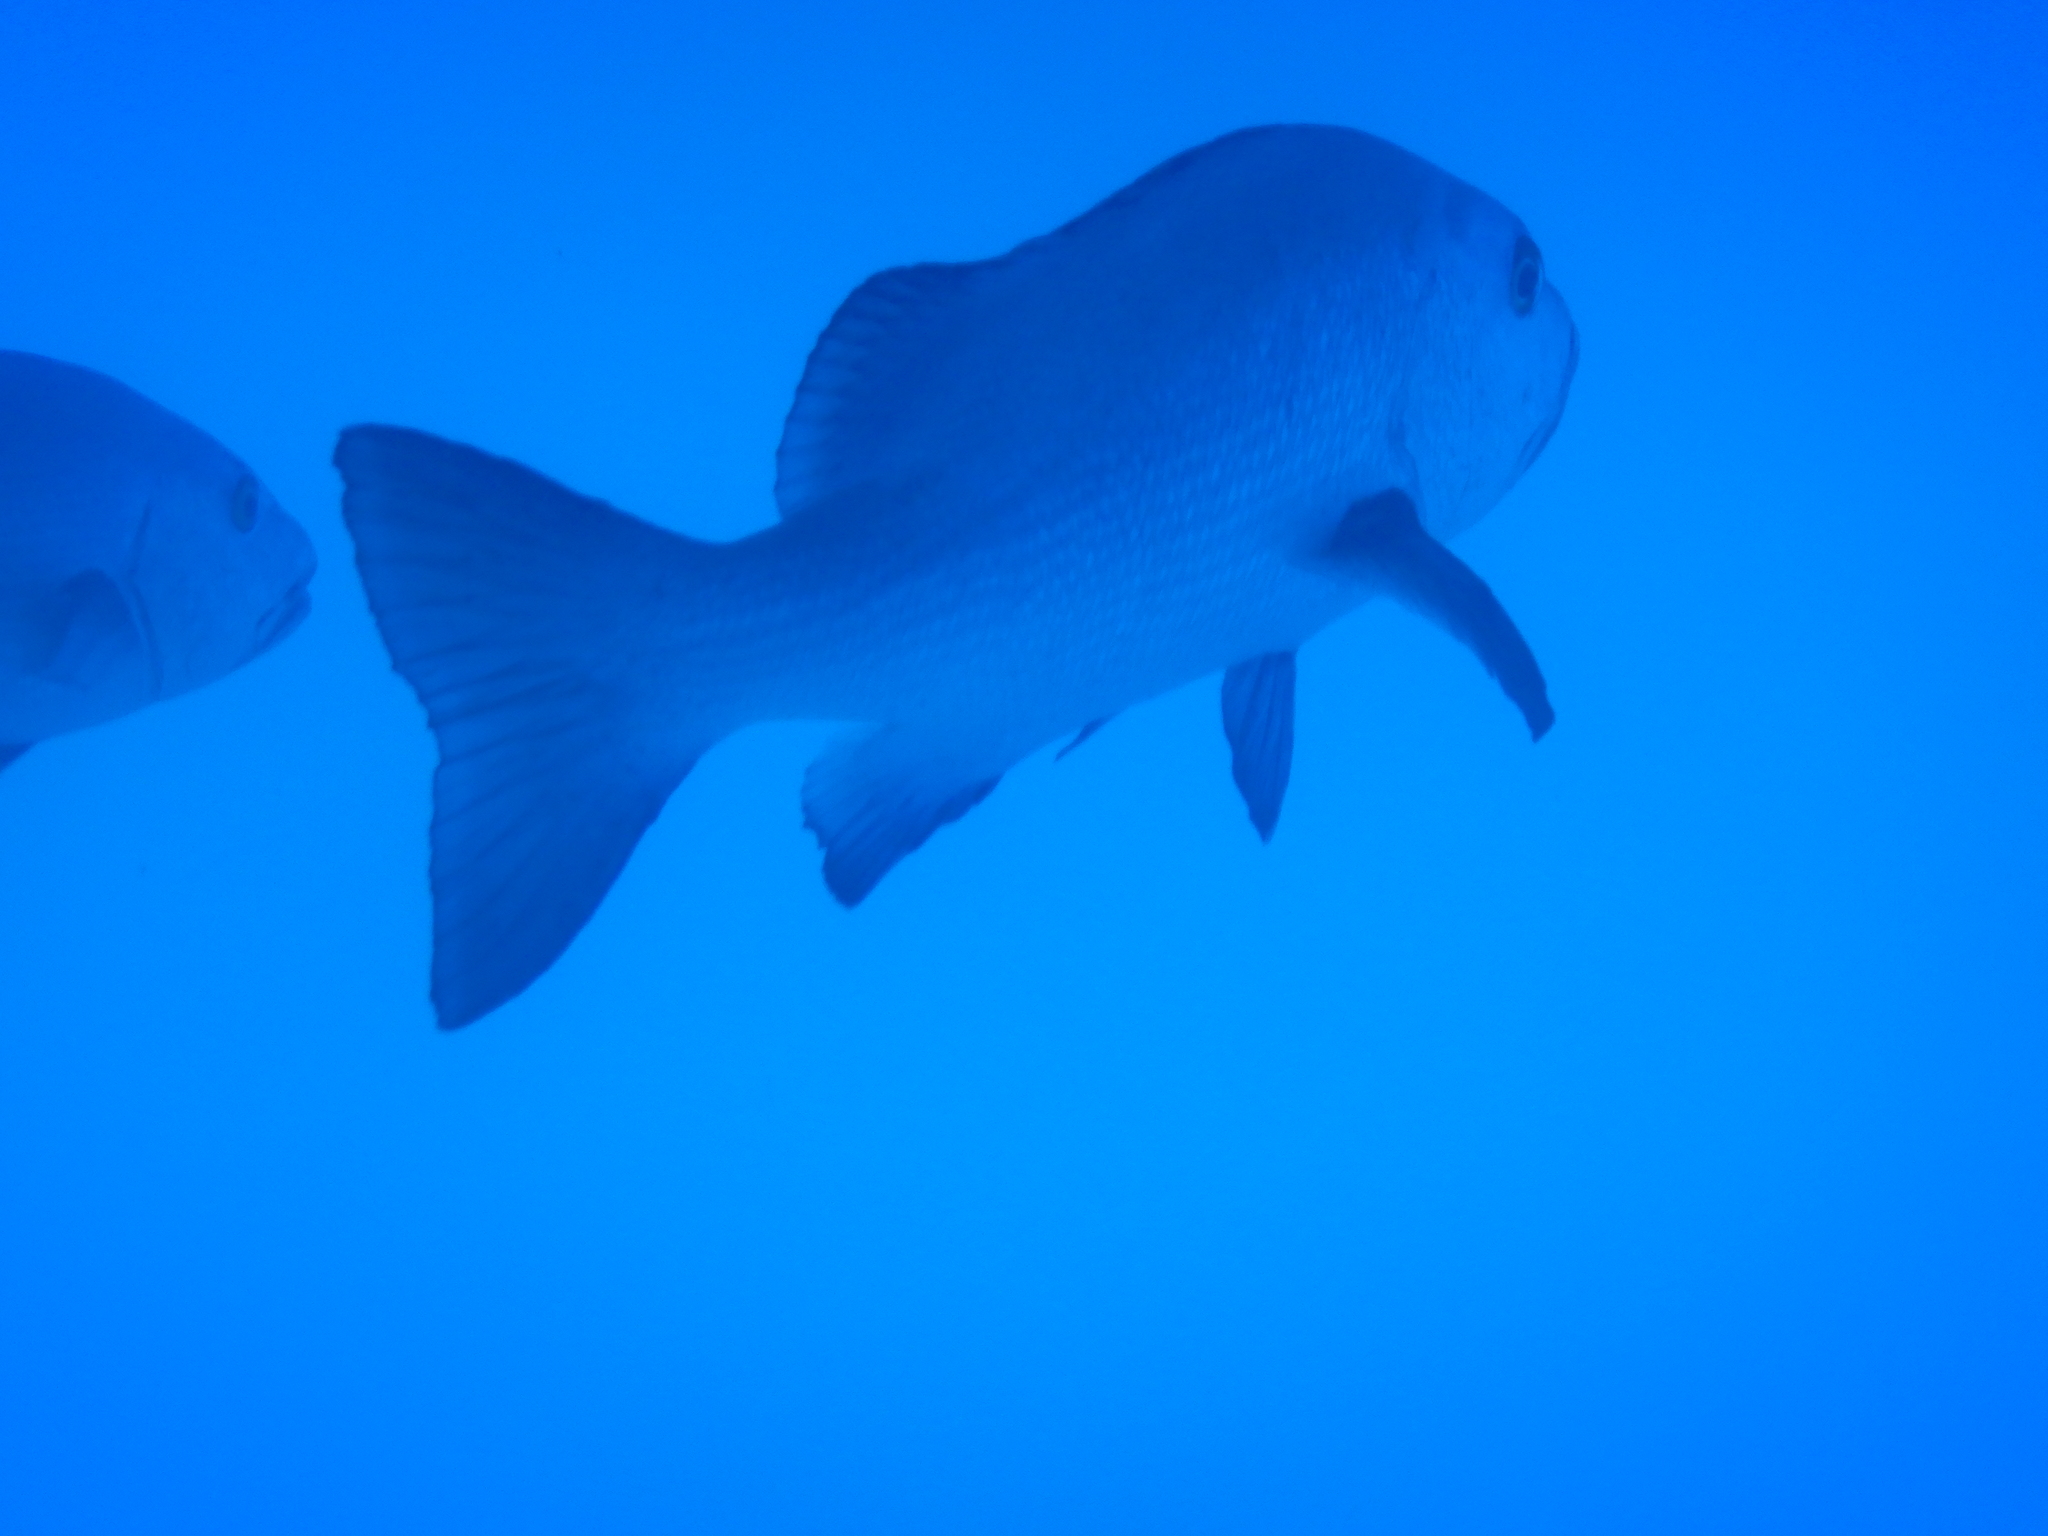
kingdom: Animalia
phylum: Chordata
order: Perciformes
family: Lutjanidae
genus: Lutjanus
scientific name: Lutjanus bohar
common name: Red bass
